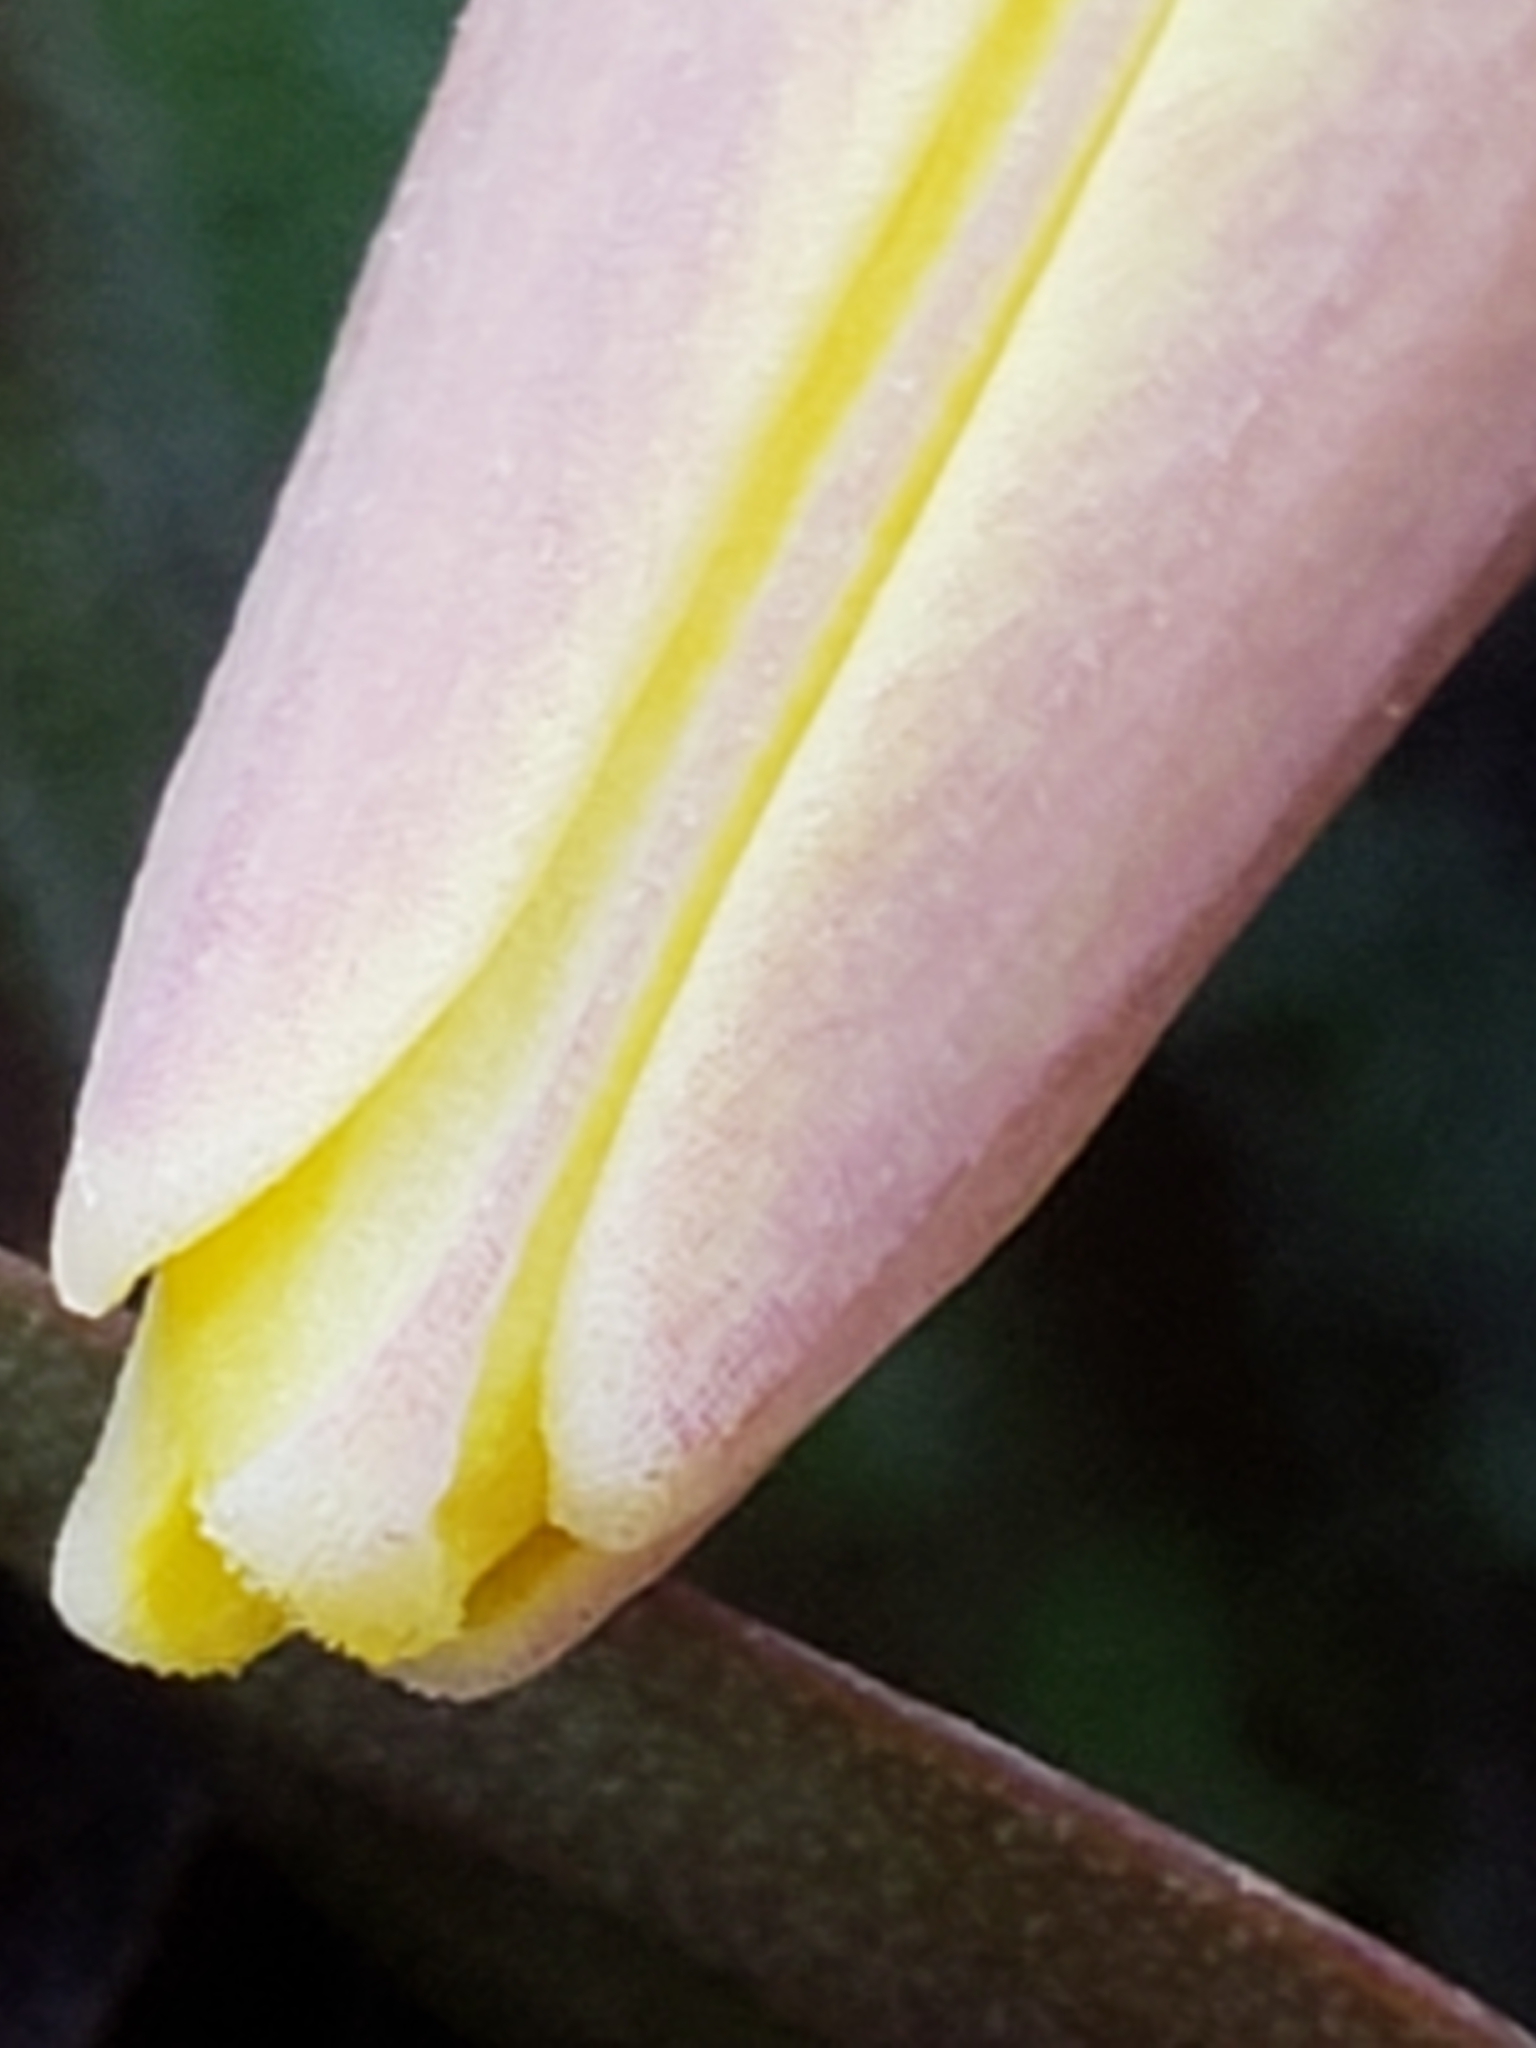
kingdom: Plantae
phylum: Tracheophyta
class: Liliopsida
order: Liliales
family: Liliaceae
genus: Erythronium
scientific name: Erythronium americanum
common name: Yellow adder's-tongue
